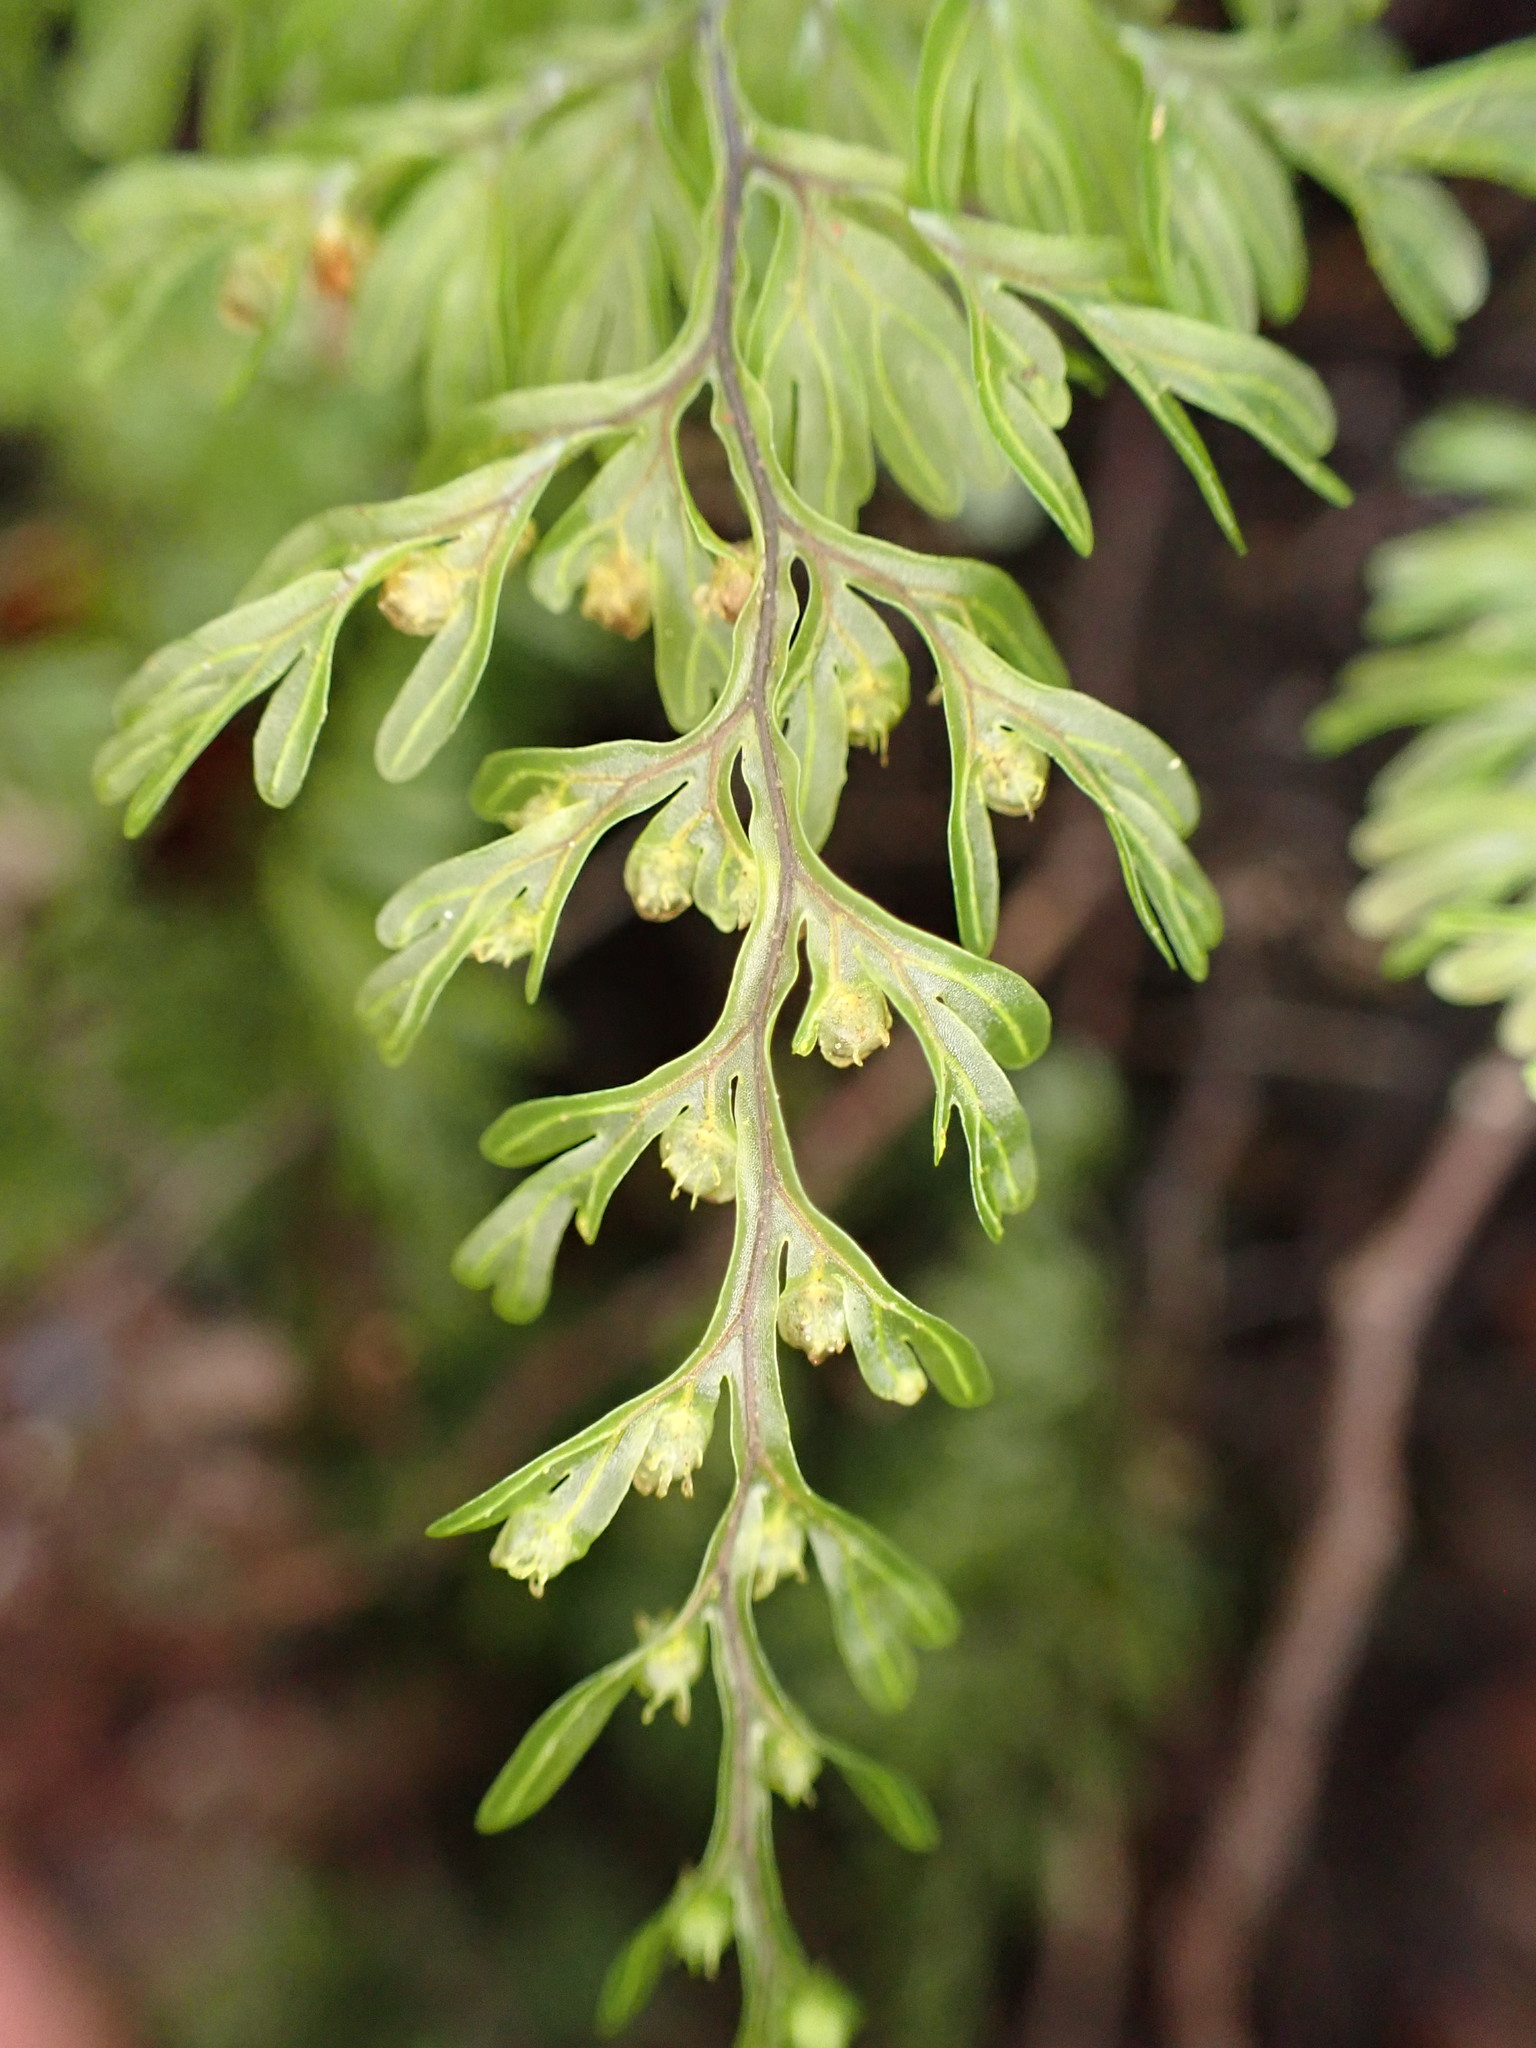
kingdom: Plantae
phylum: Tracheophyta
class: Polypodiopsida
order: Hymenophyllales
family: Hymenophyllaceae
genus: Hymenophyllum
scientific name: Hymenophyllum sanguinolentum
